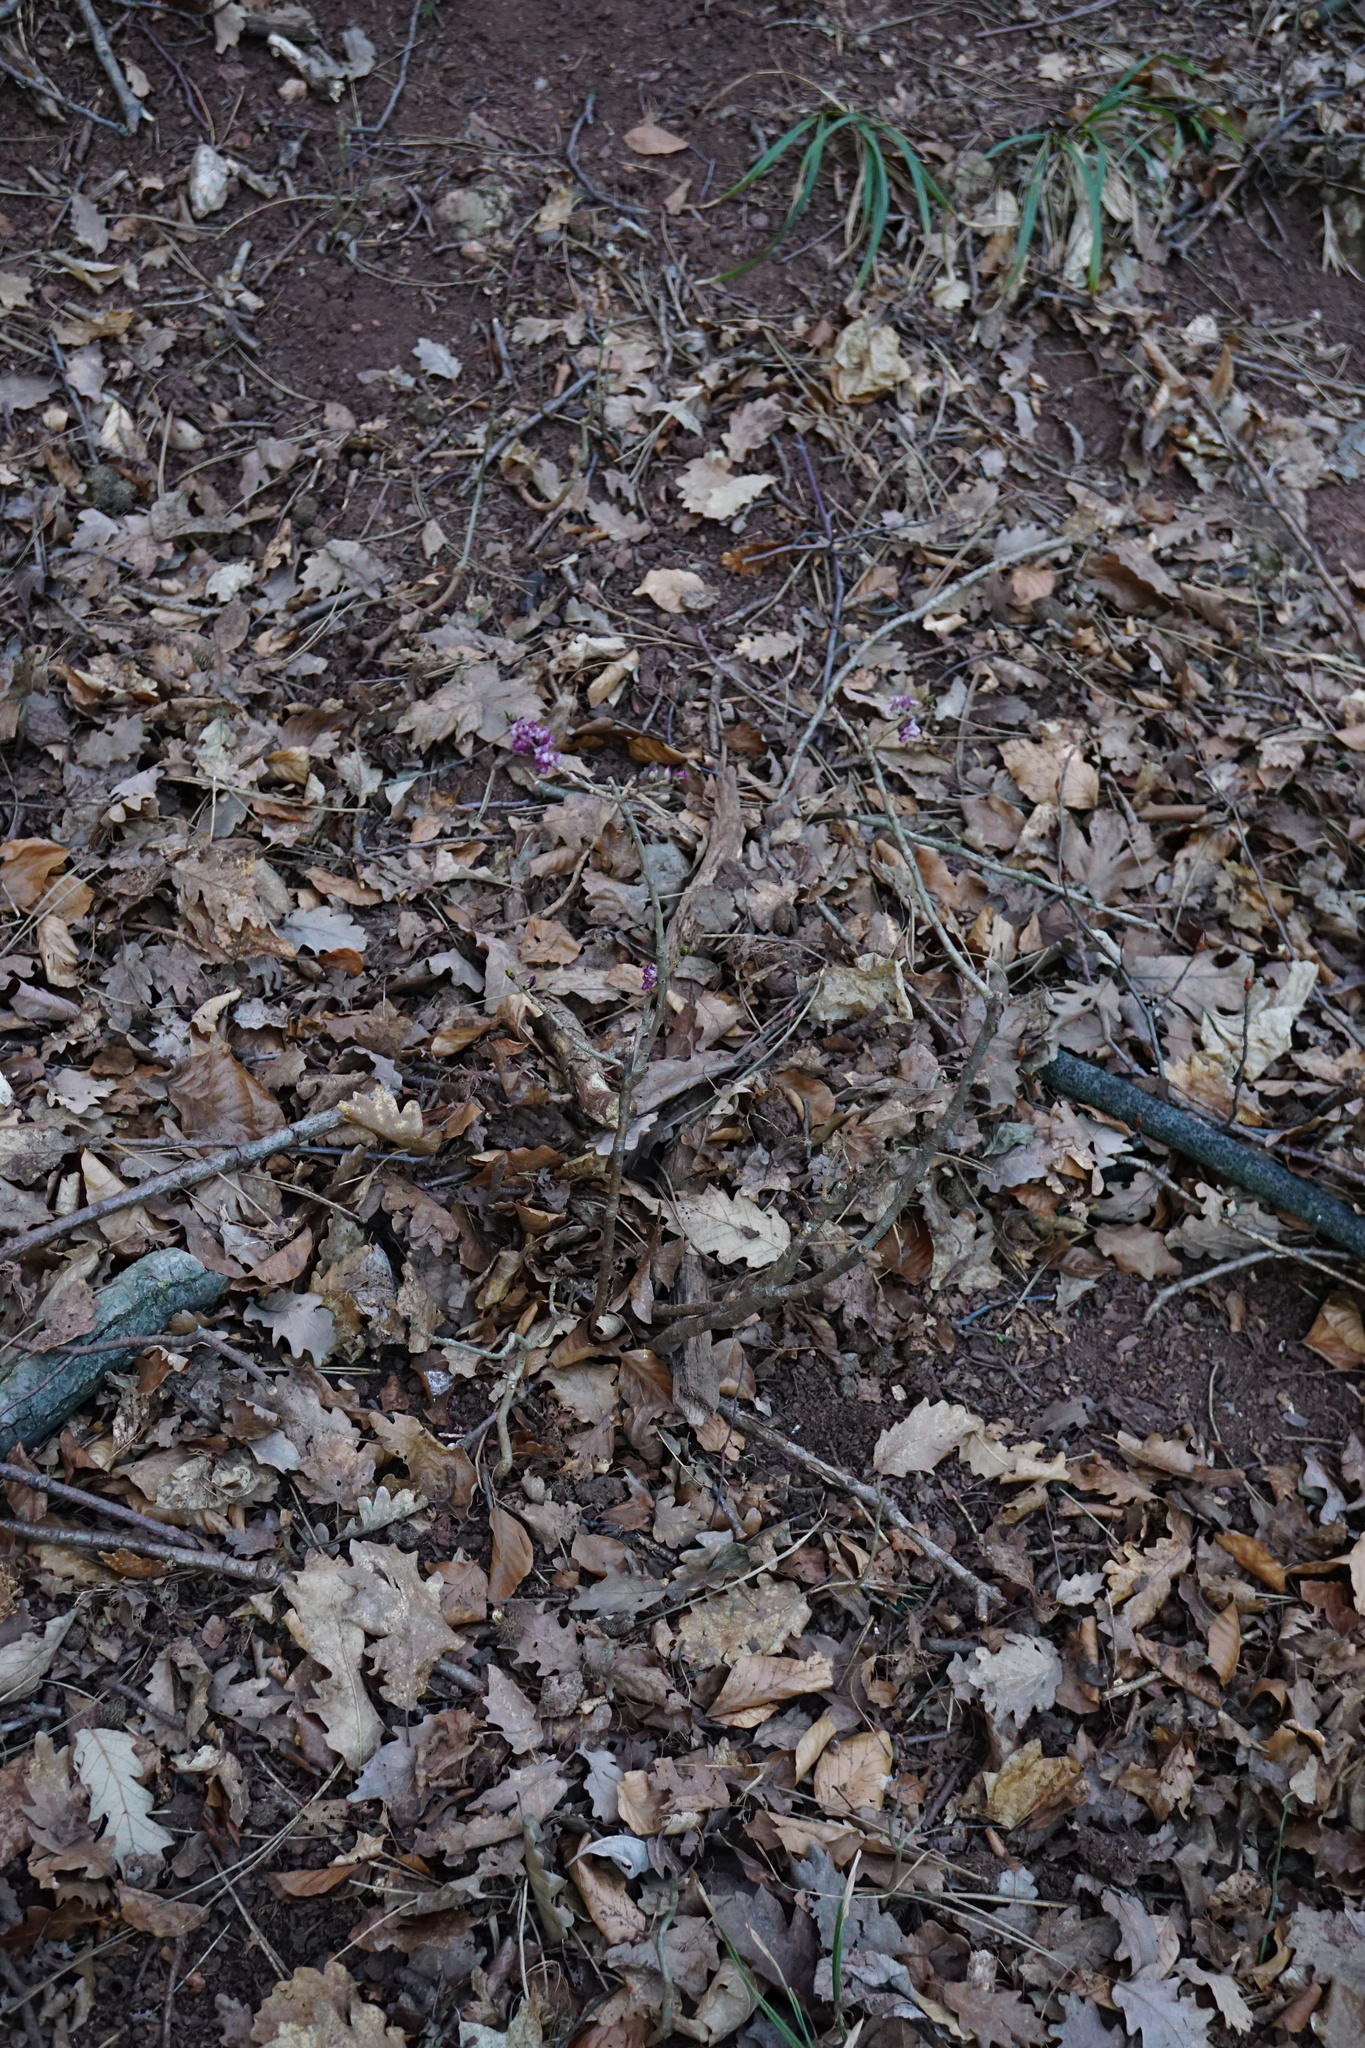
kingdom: Plantae
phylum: Tracheophyta
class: Magnoliopsida
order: Malvales
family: Thymelaeaceae
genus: Daphne
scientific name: Daphne mezereum
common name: Mezereon
